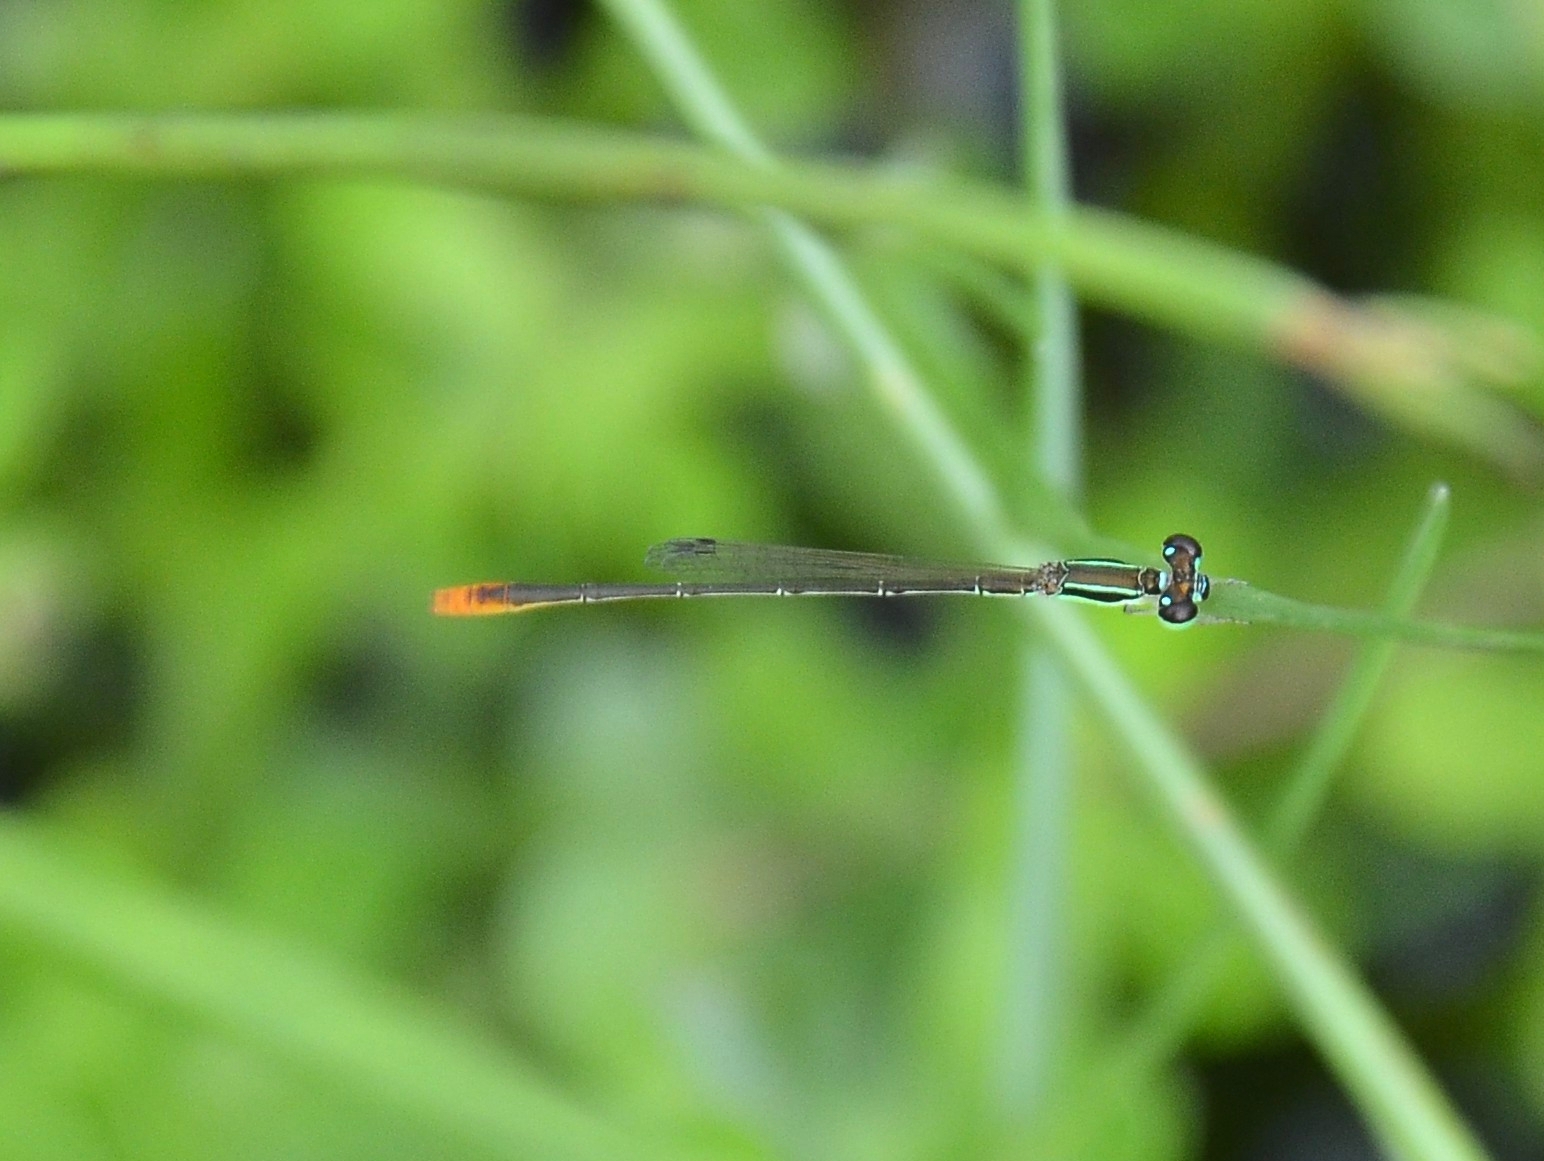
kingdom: Animalia
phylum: Arthropoda
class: Insecta
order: Odonata
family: Coenagrionidae
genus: Agriocnemis
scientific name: Agriocnemis pygmaea
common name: Pygmy wisp
